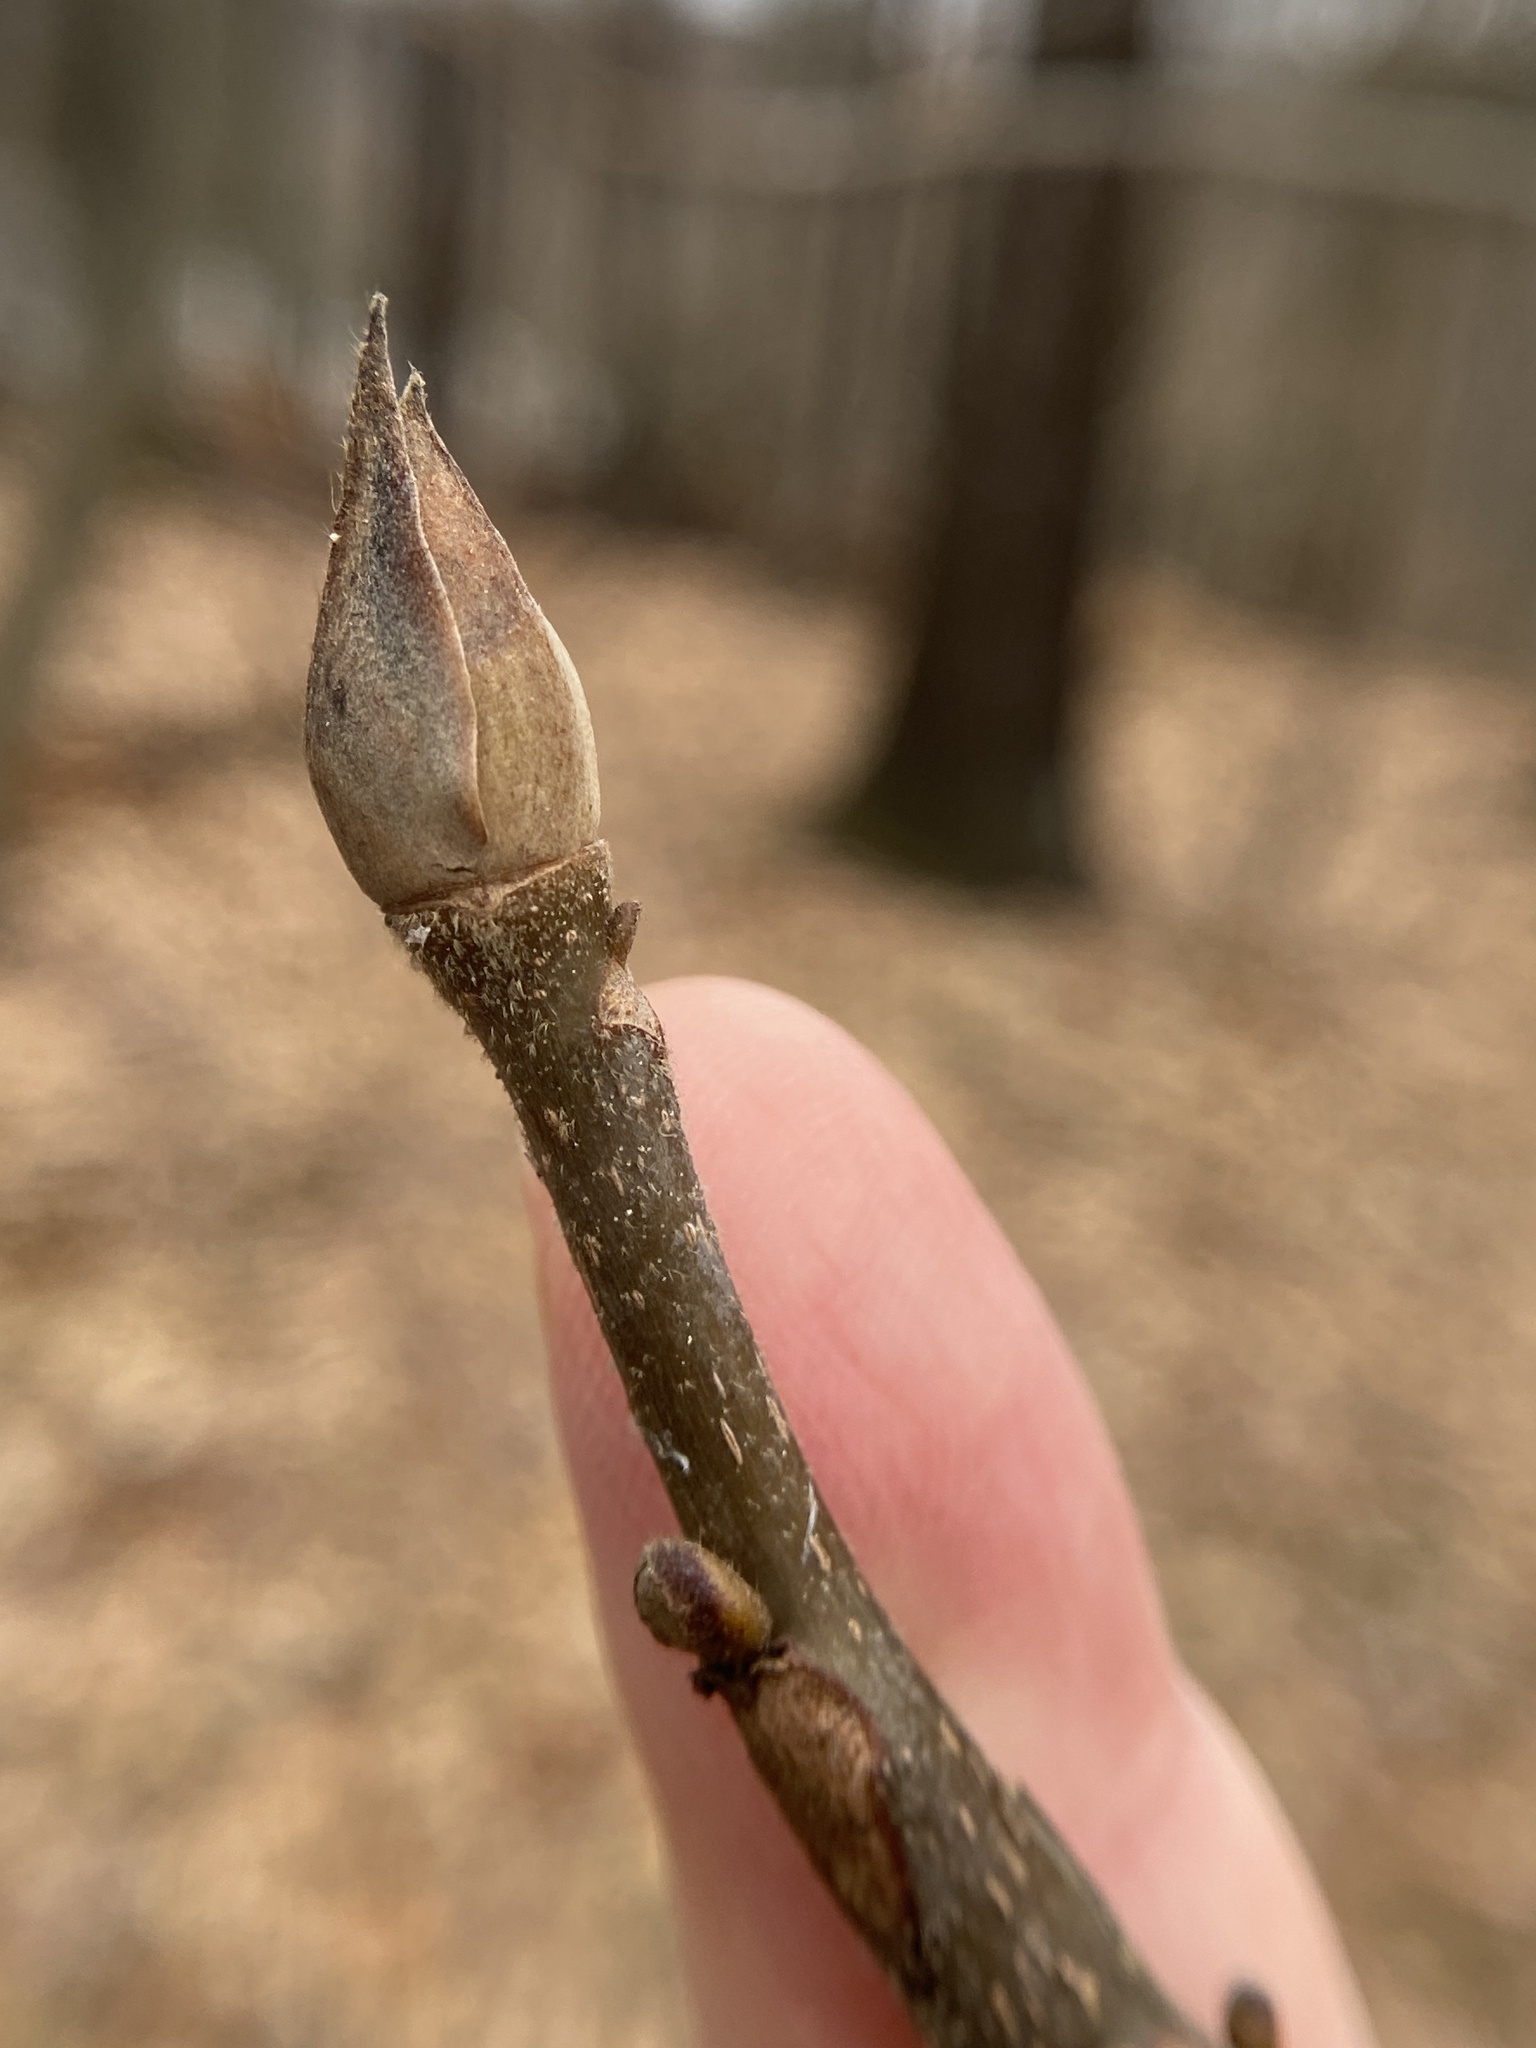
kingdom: Plantae
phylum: Tracheophyta
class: Magnoliopsida
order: Fagales
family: Juglandaceae
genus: Carya
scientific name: Carya alba
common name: Mockernut hickory
